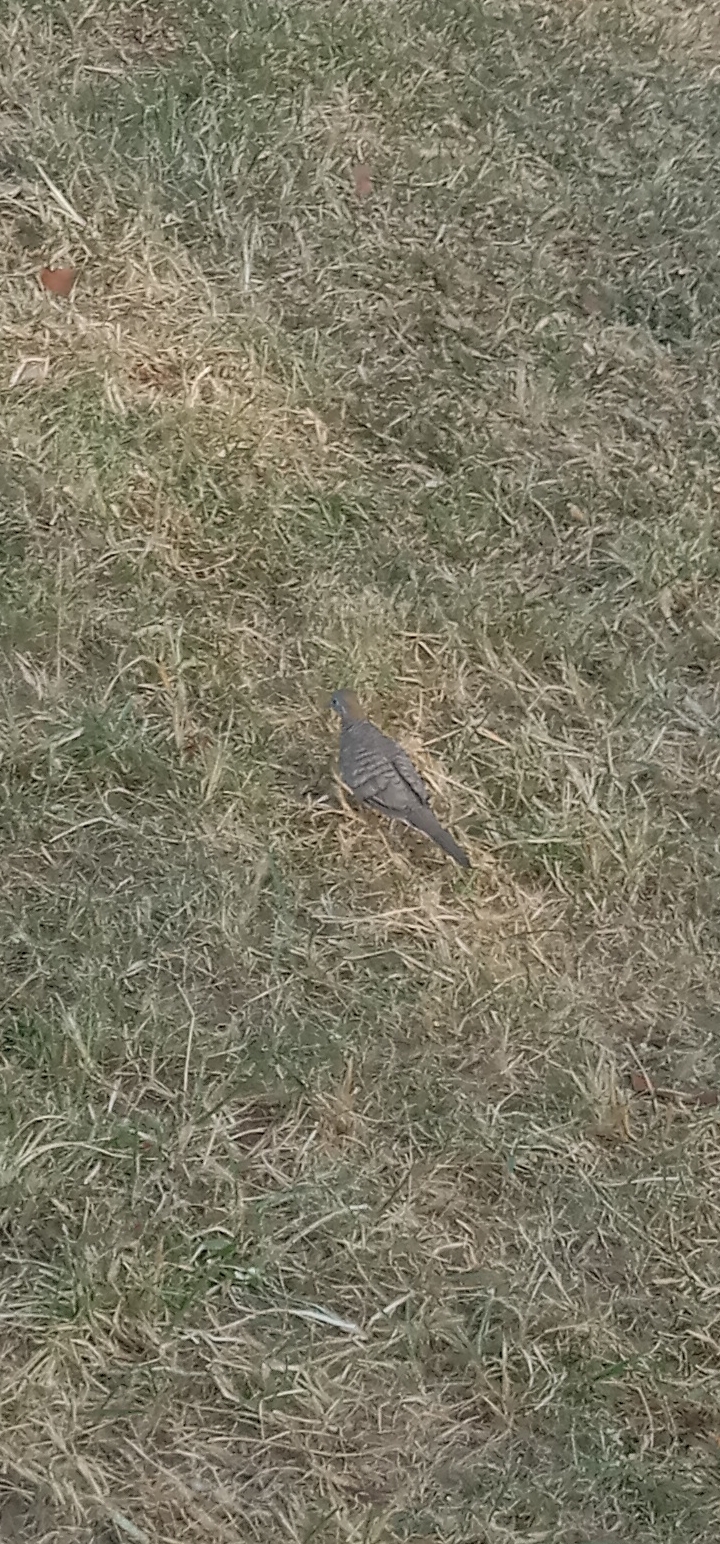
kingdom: Animalia
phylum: Chordata
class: Aves
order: Columbiformes
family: Columbidae
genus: Geopelia
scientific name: Geopelia striata
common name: Zebra dove
